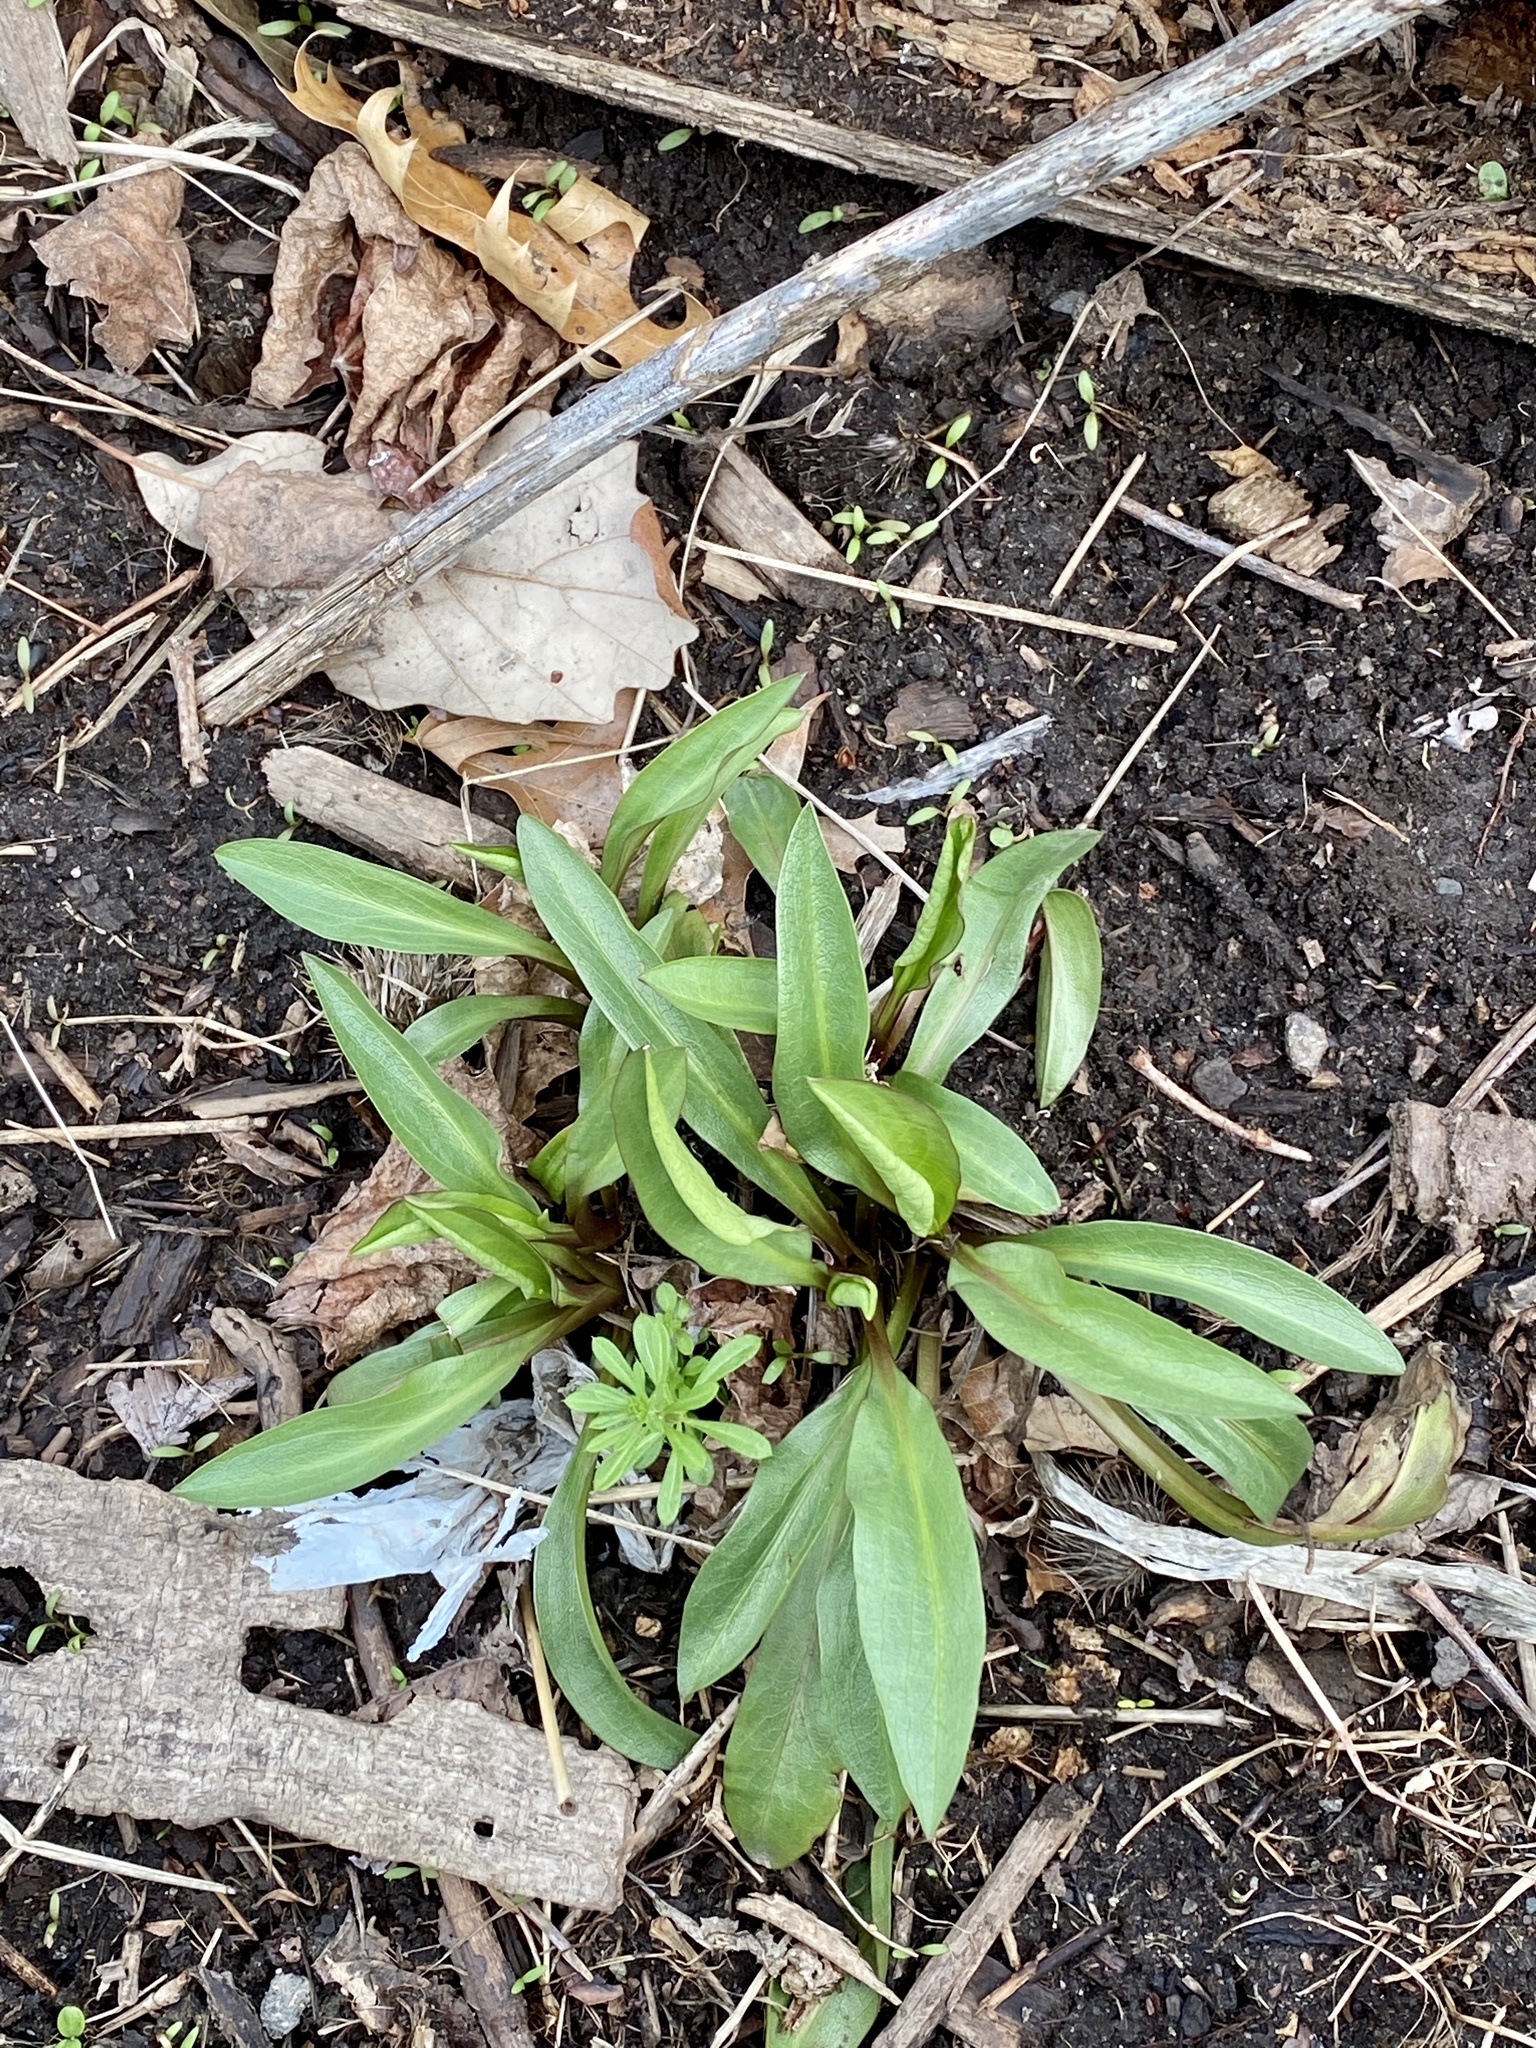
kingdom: Plantae
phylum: Tracheophyta
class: Magnoliopsida
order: Asterales
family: Asteraceae
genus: Solidago
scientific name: Solidago sempervirens
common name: Salt-marsh goldenrod
